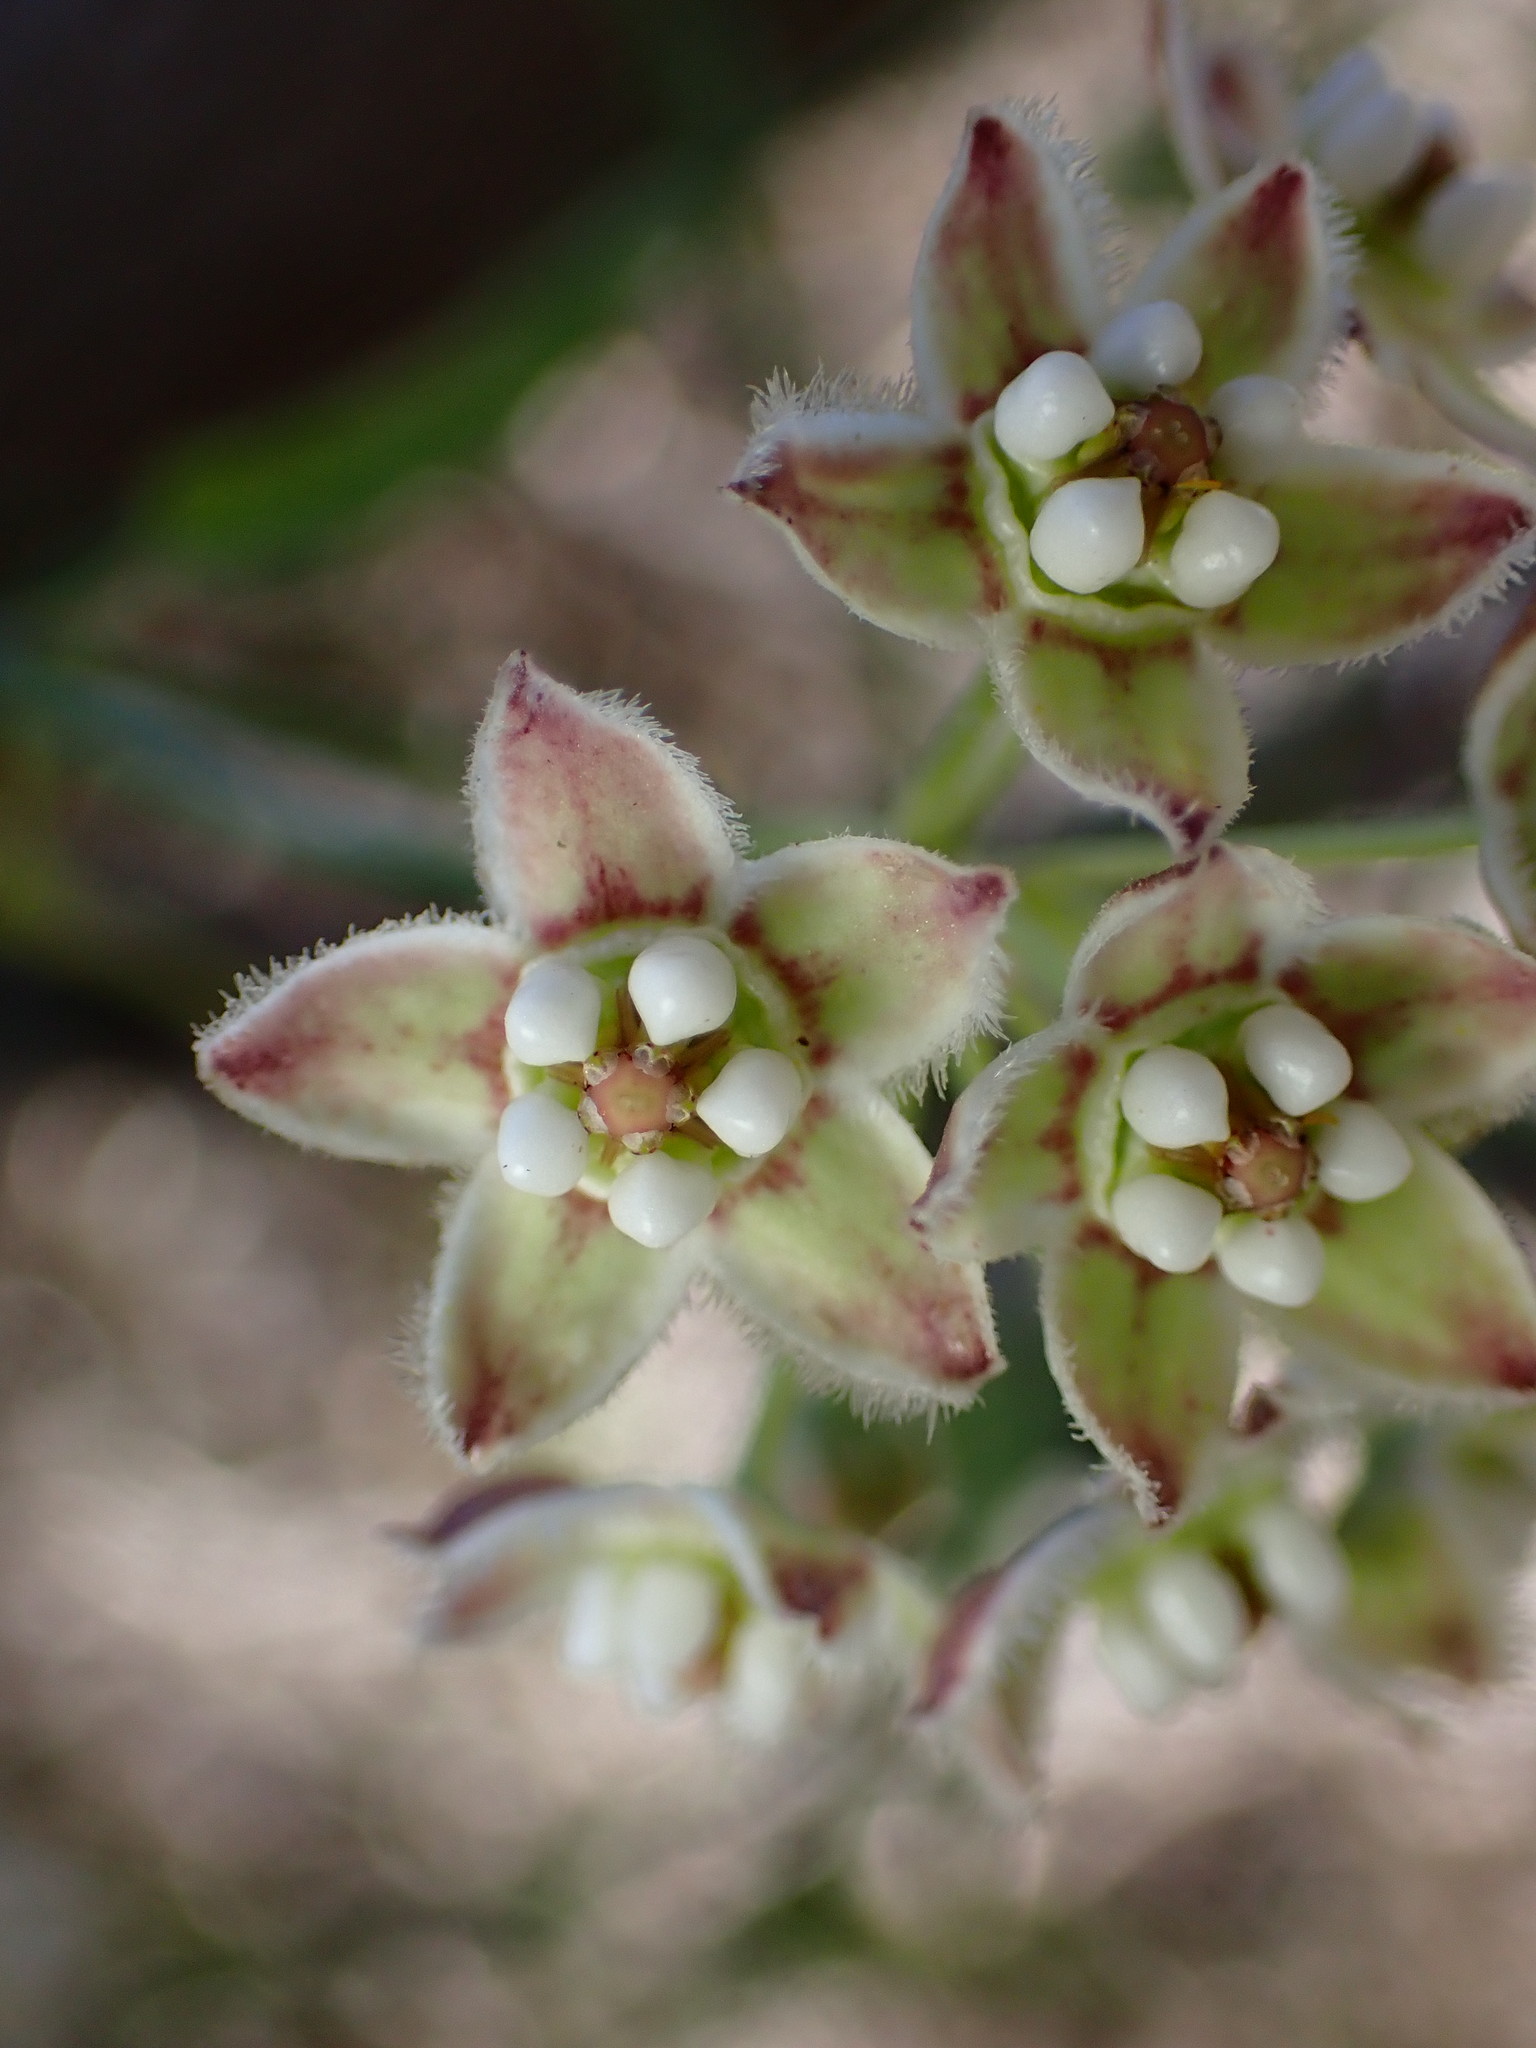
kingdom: Plantae
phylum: Tracheophyta
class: Magnoliopsida
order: Gentianales
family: Apocynaceae
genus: Funastrum
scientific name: Funastrum heterophyllum
